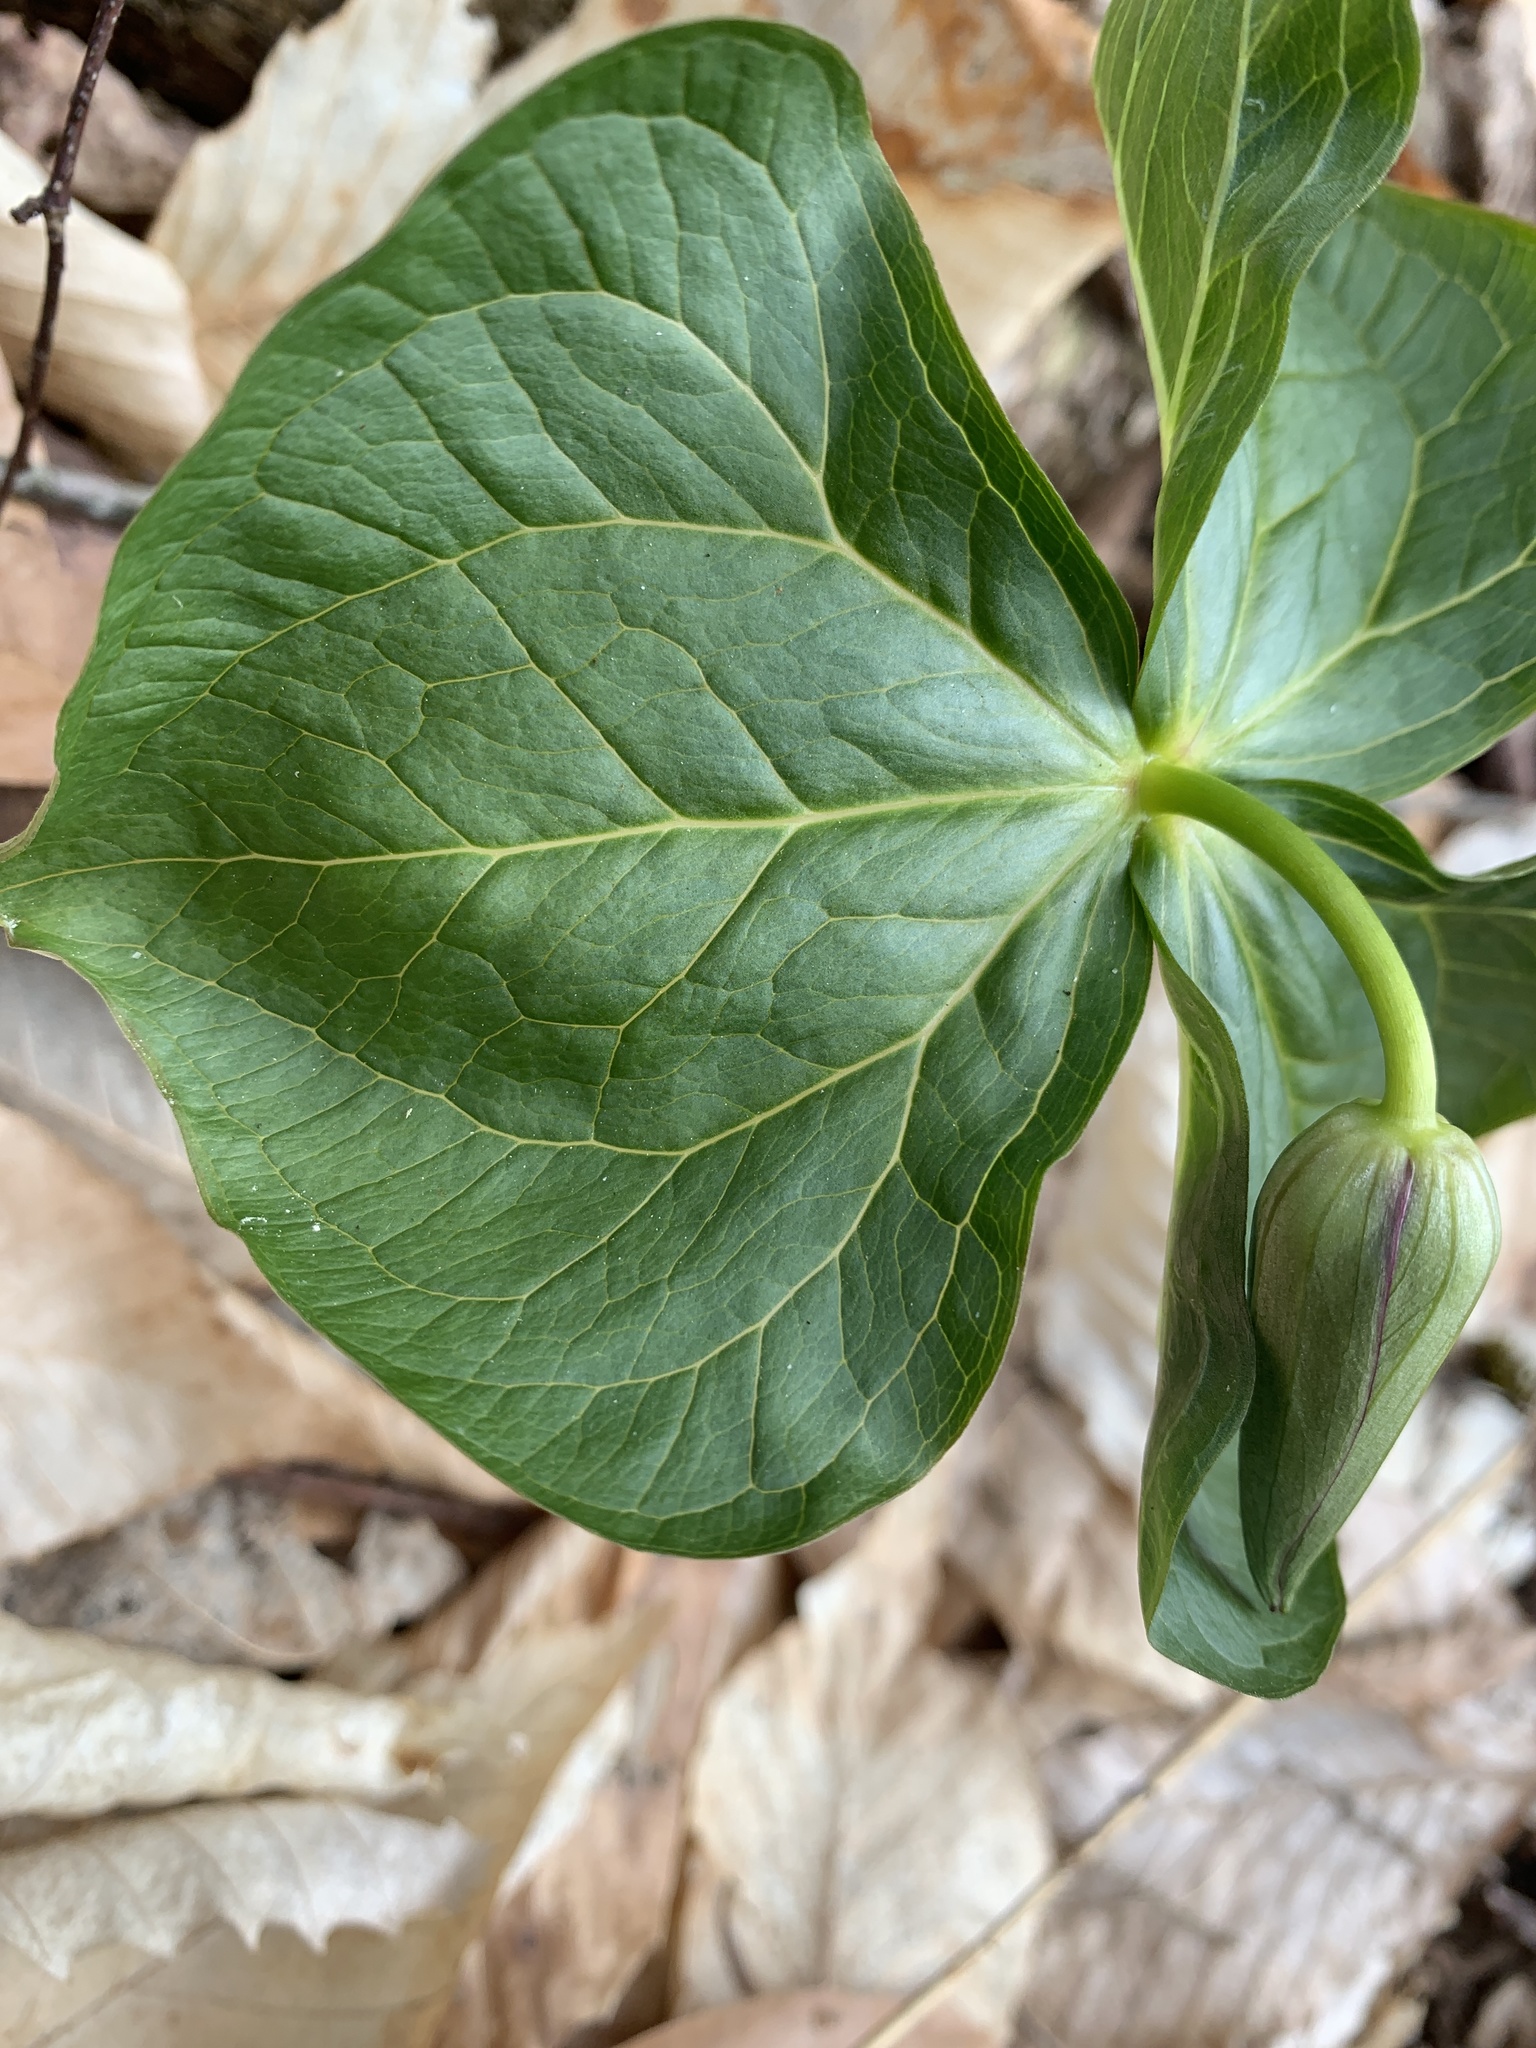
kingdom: Plantae
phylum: Tracheophyta
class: Liliopsida
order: Liliales
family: Melanthiaceae
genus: Trillium
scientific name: Trillium erectum
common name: Purple trillium
